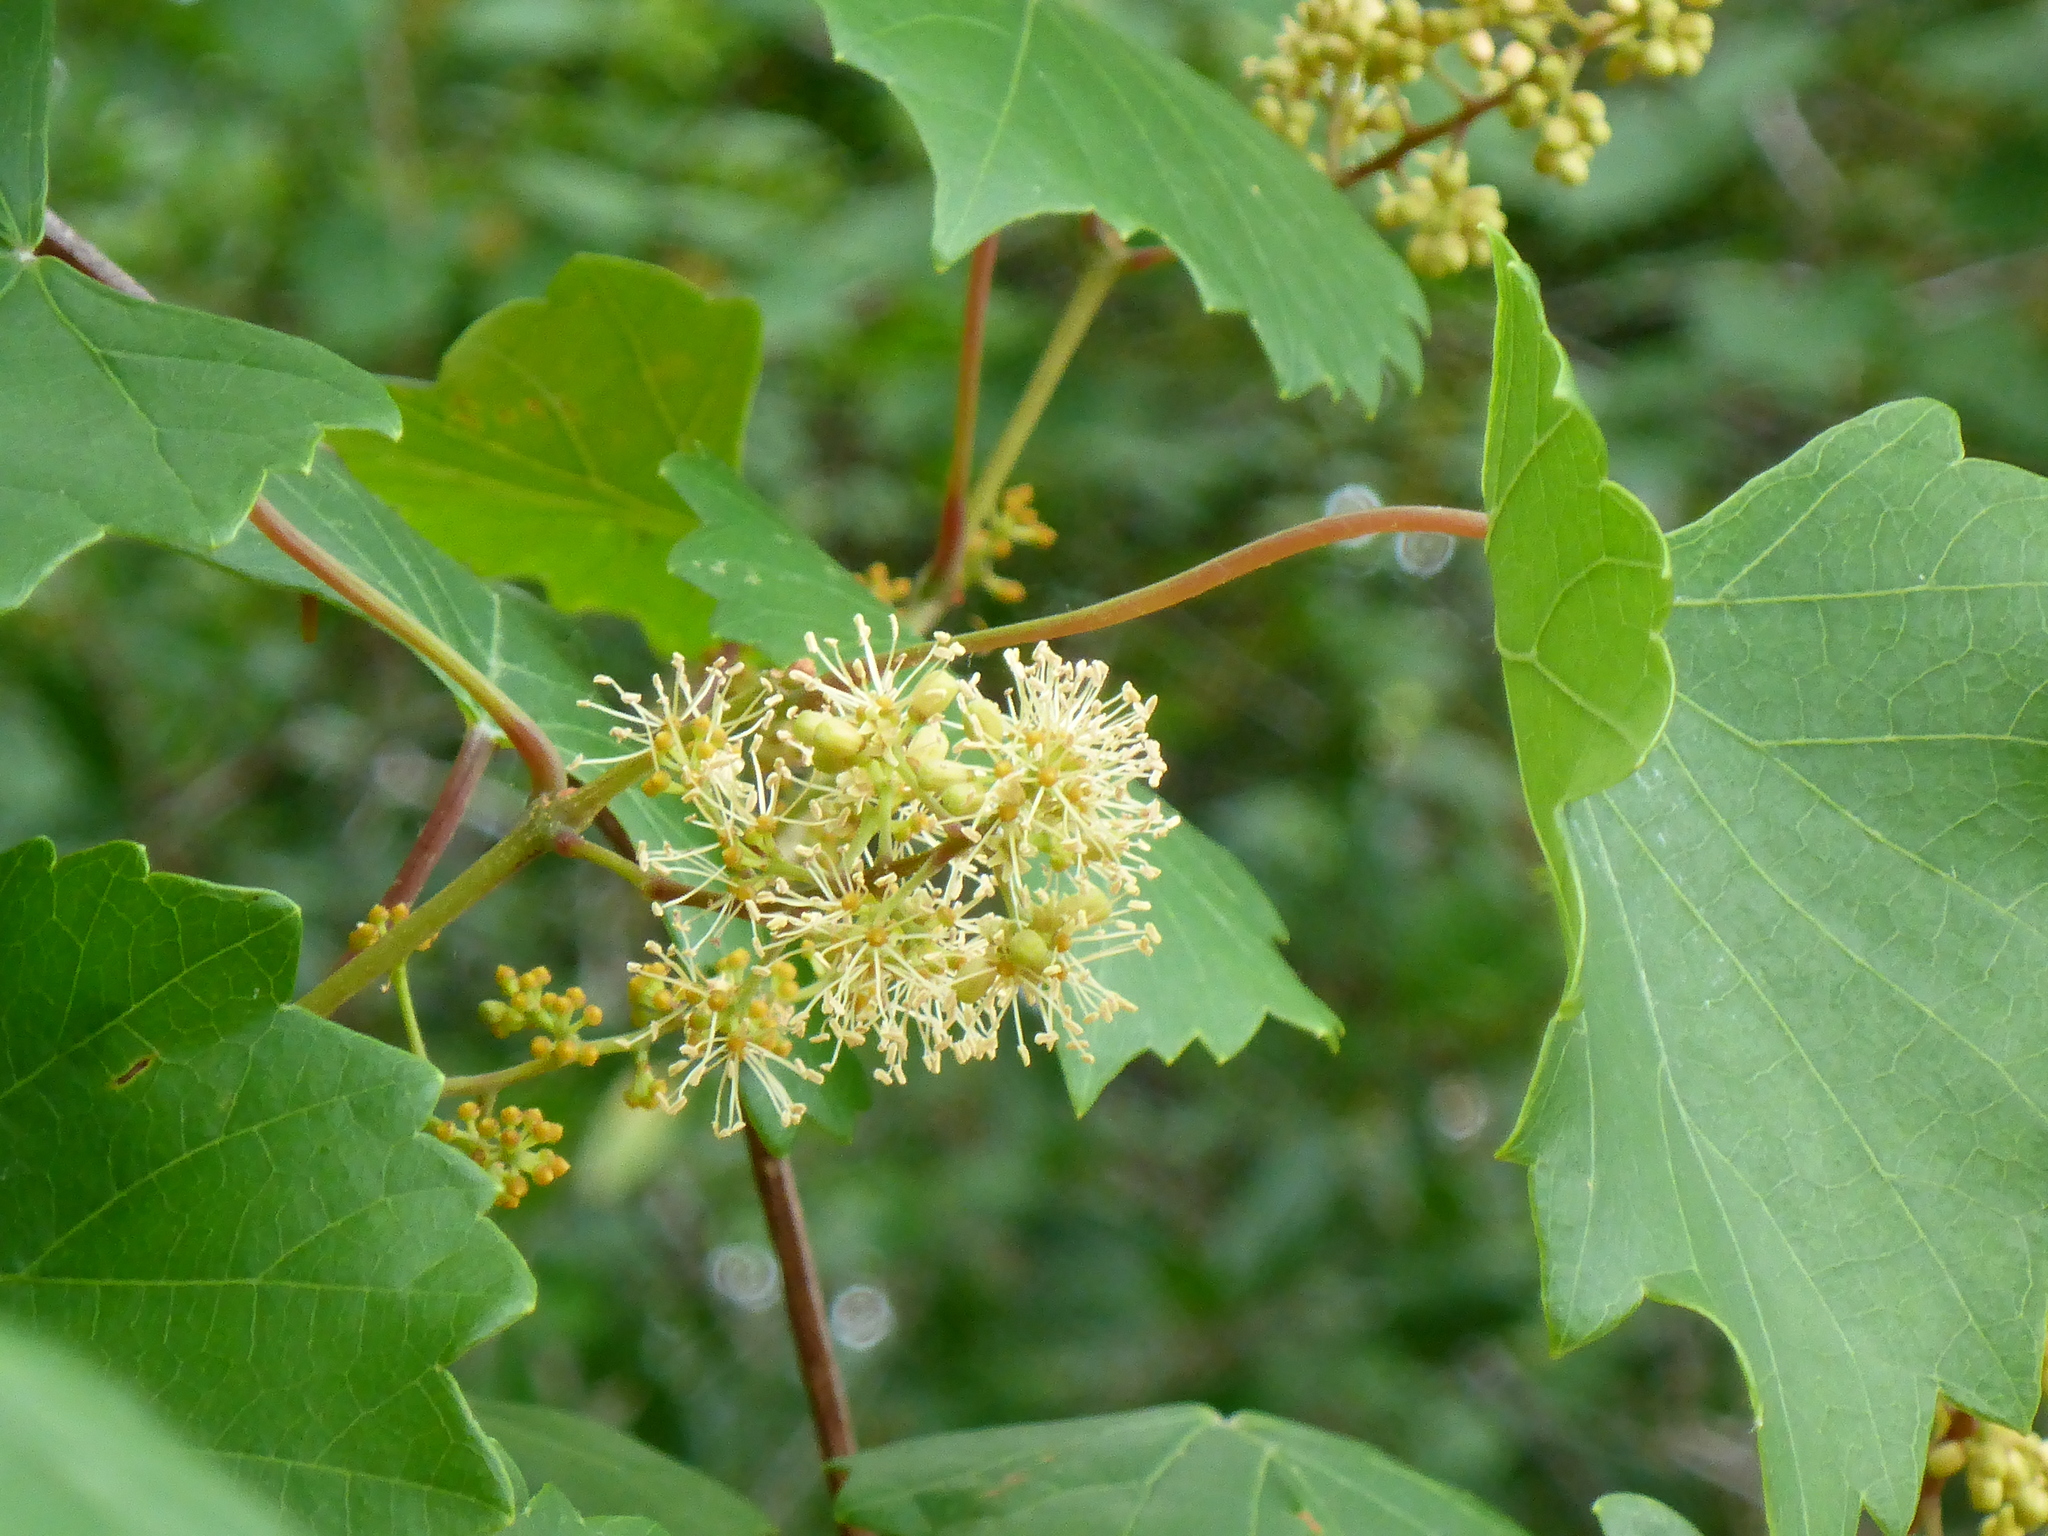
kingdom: Plantae
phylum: Tracheophyta
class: Magnoliopsida
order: Vitales
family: Vitaceae
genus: Vitis
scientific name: Vitis rotundifolia
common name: Muscadine grape
